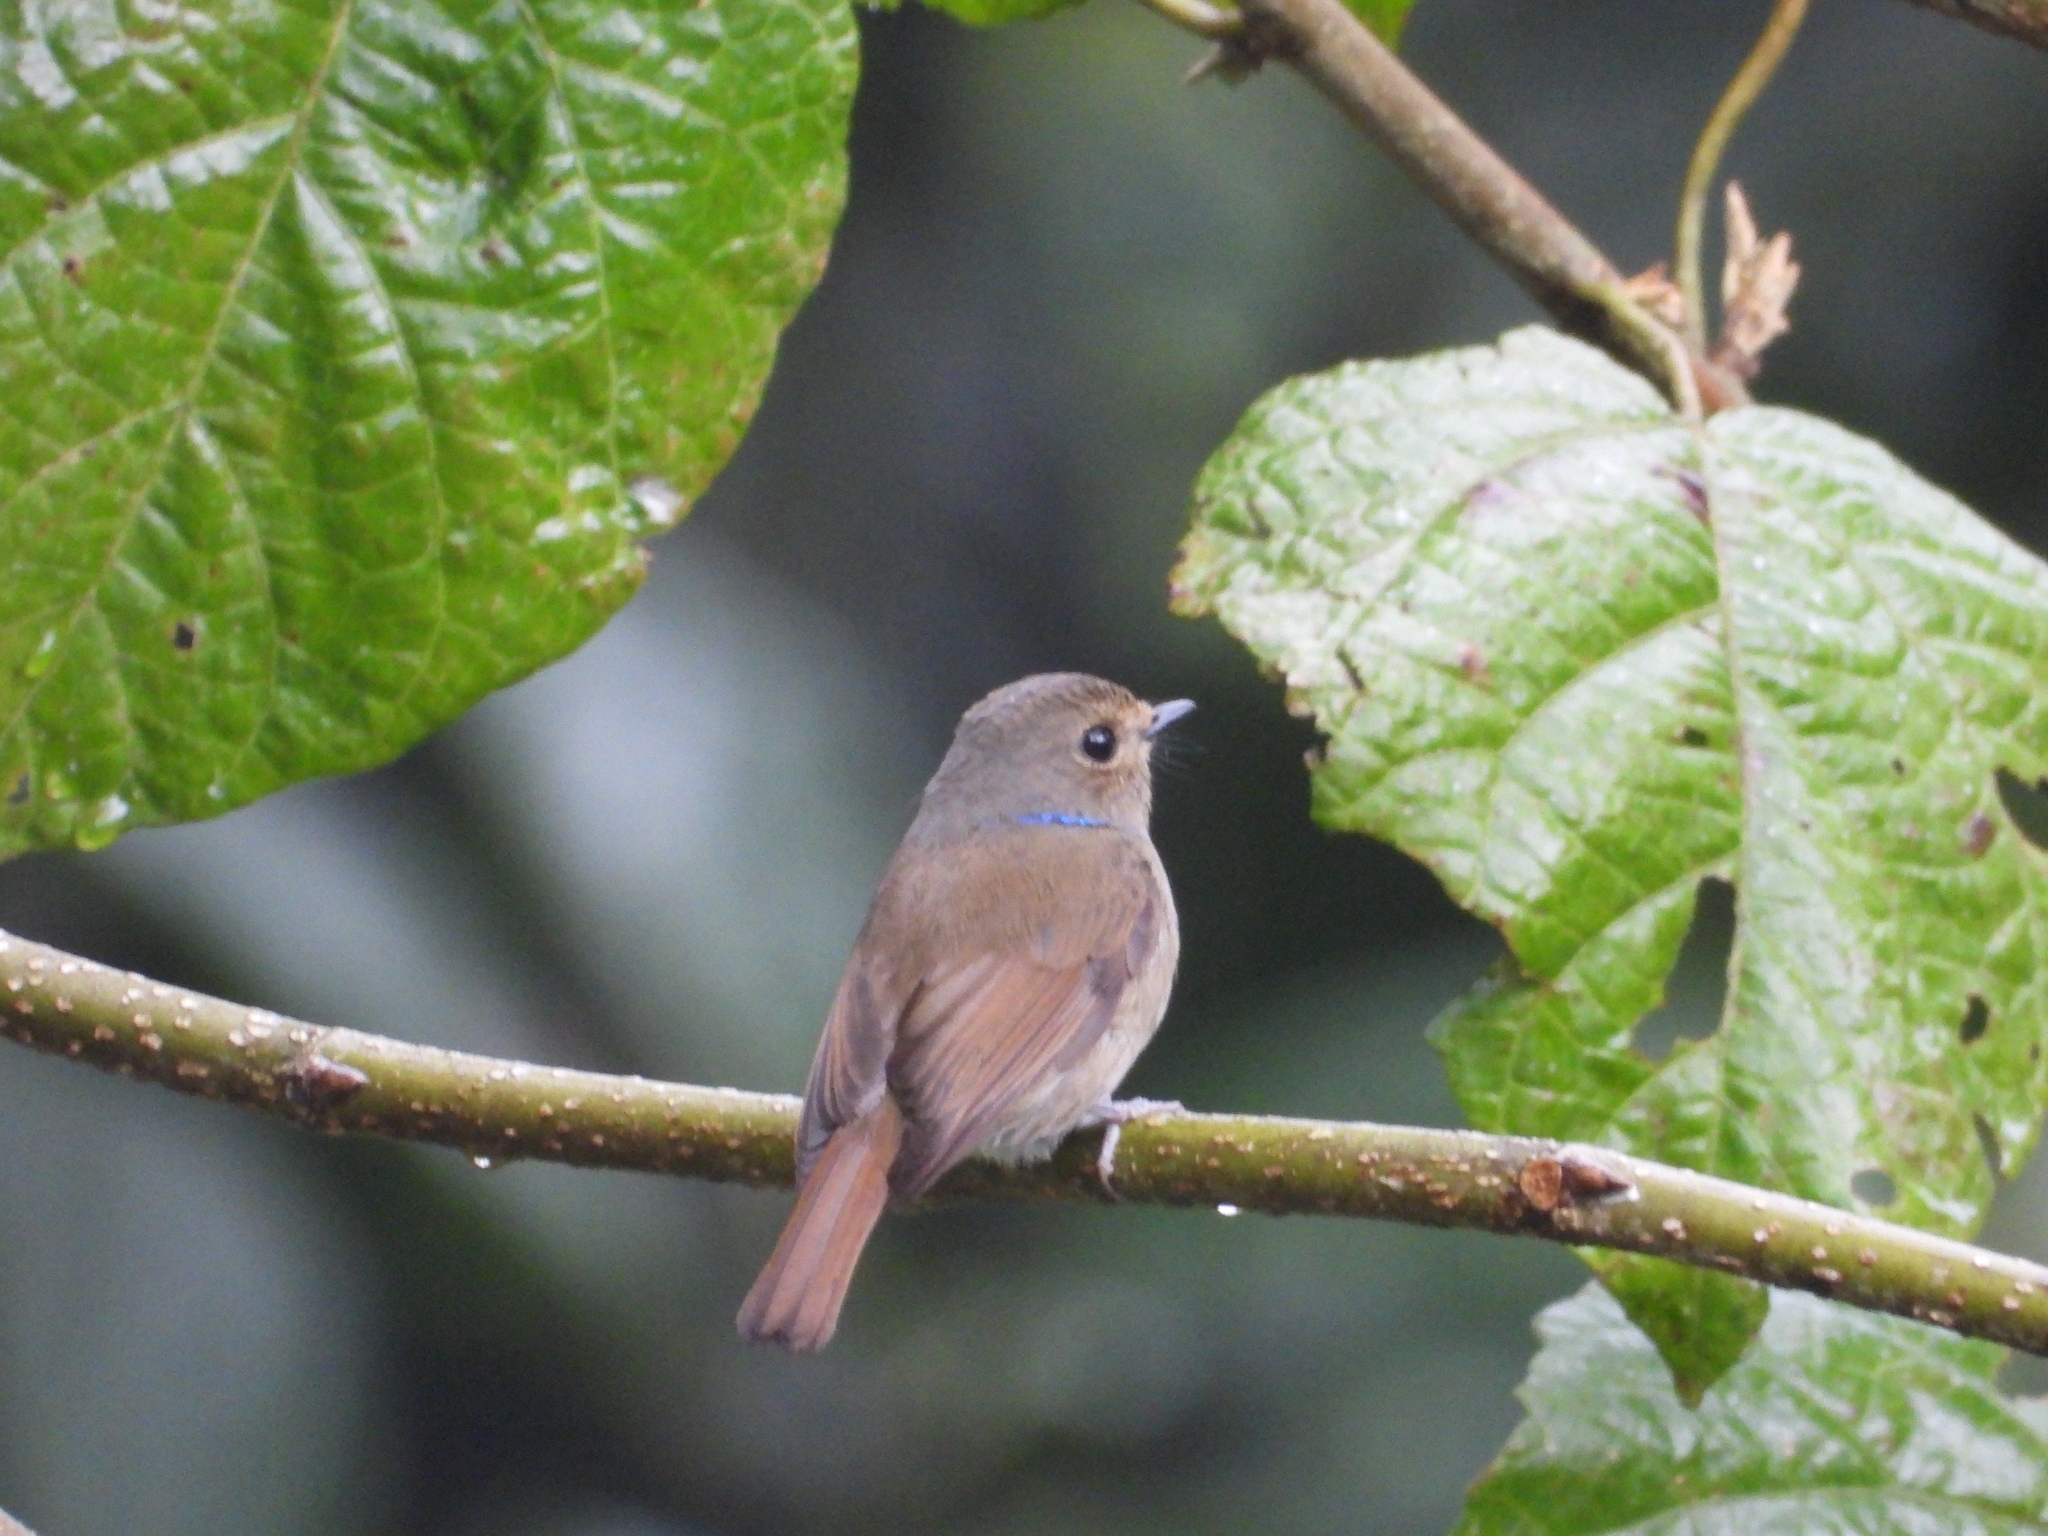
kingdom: Animalia
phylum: Chordata
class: Aves
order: Passeriformes
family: Muscicapidae
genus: Niltava
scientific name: Niltava macgrigoriae
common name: Small niltava
